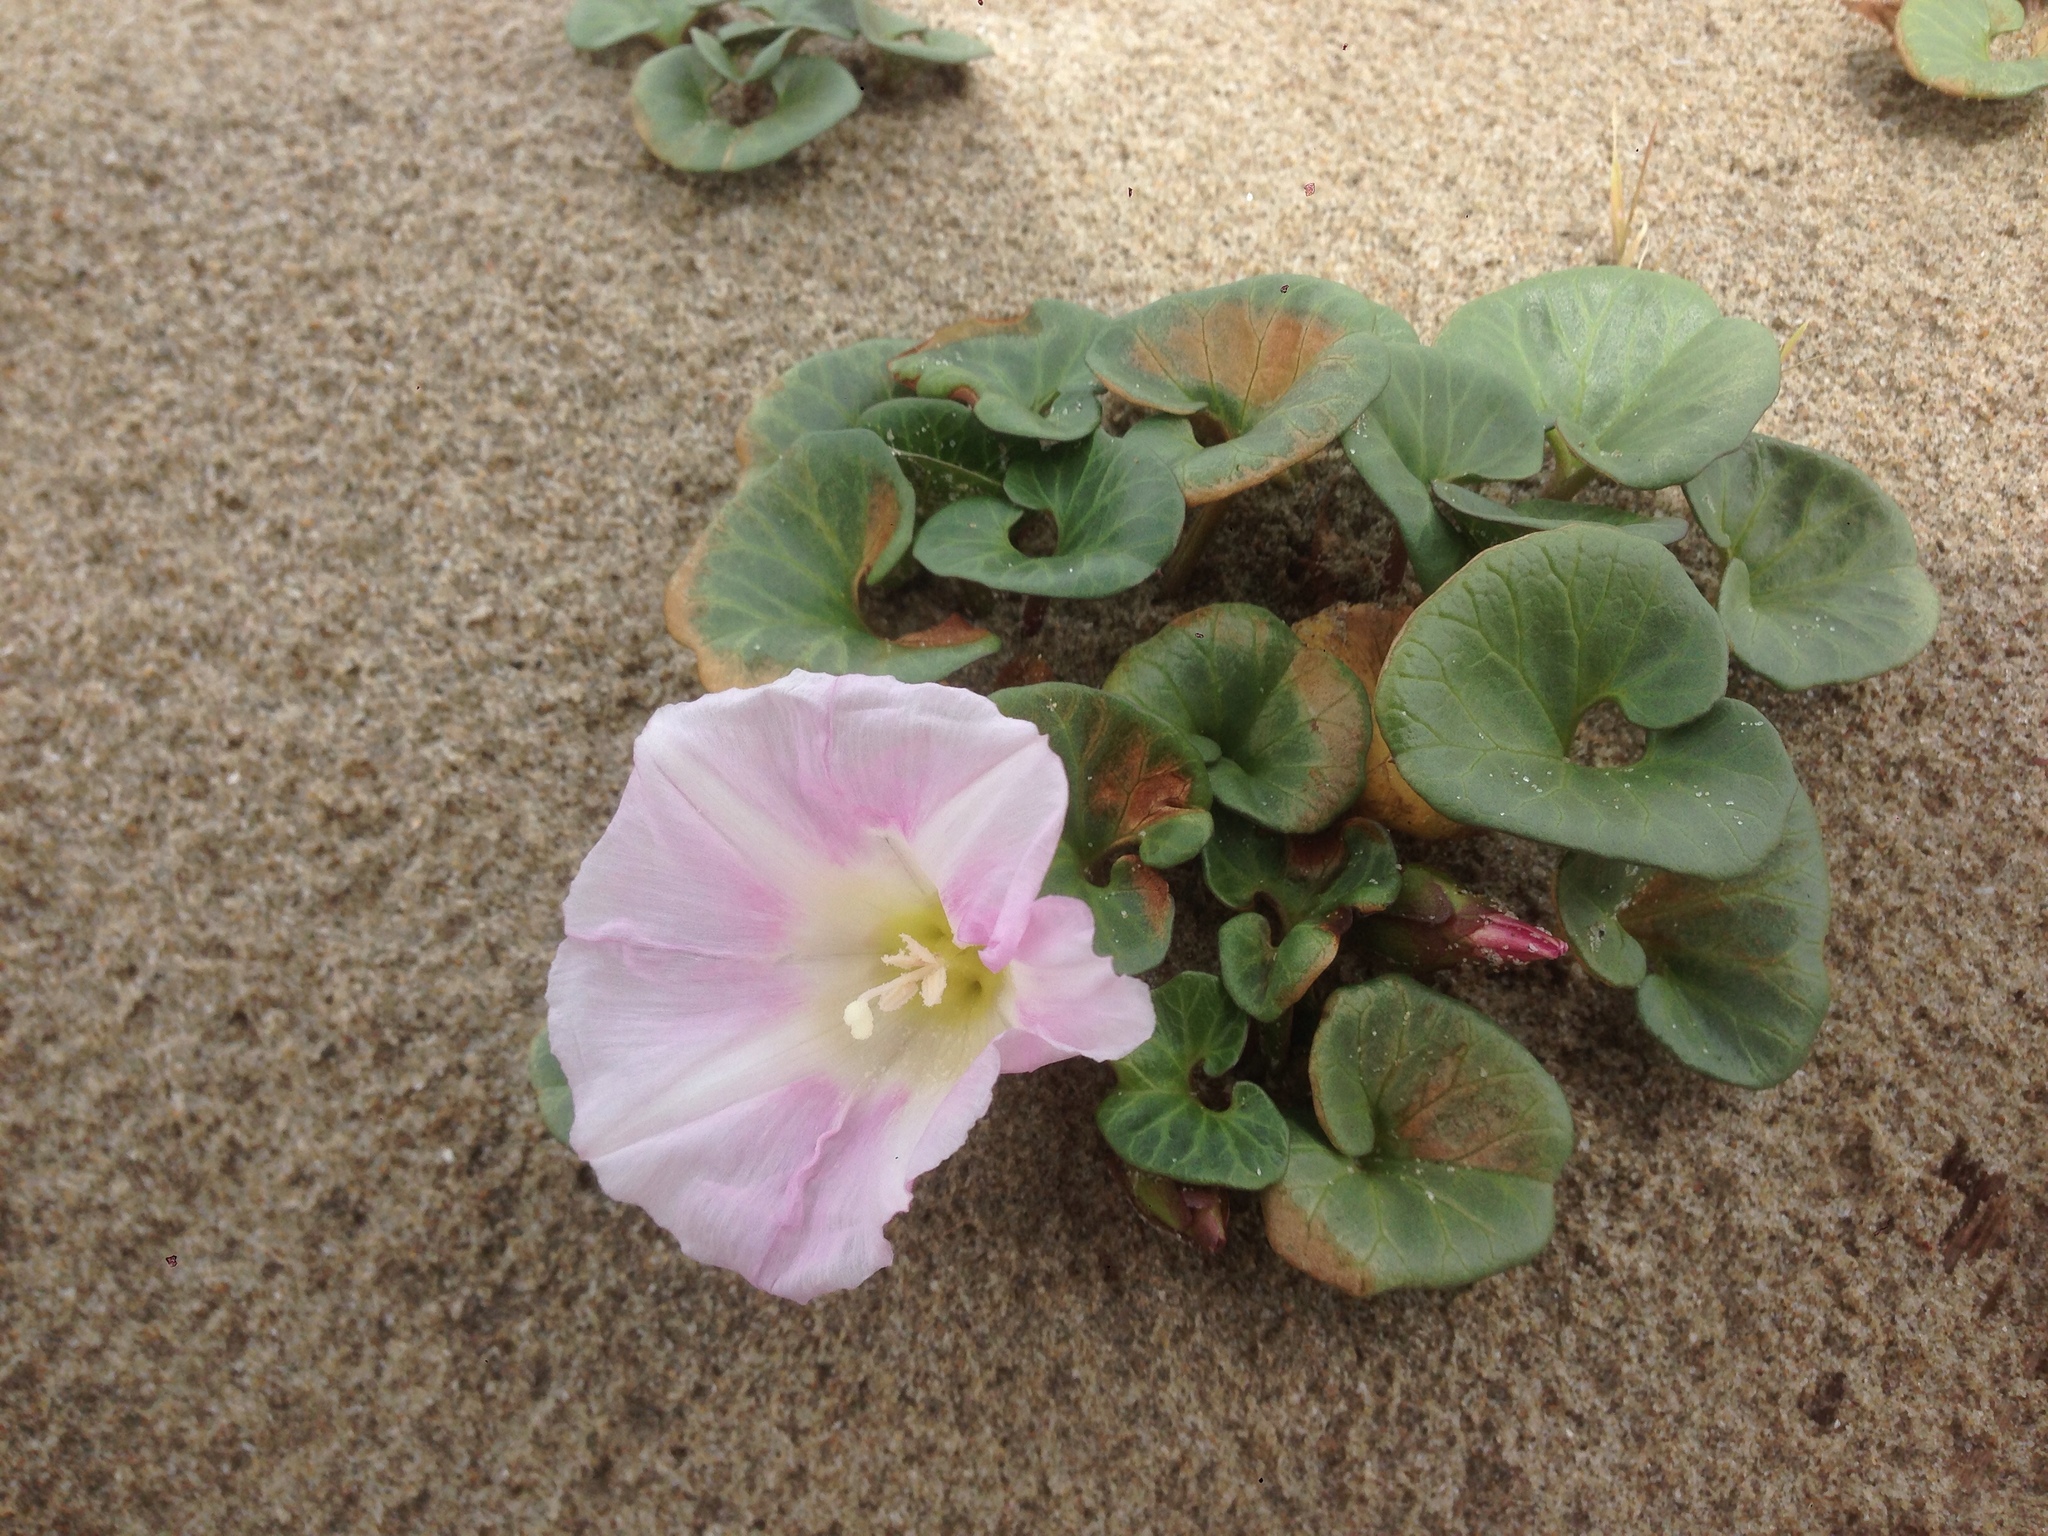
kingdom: Plantae
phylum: Tracheophyta
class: Magnoliopsida
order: Solanales
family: Convolvulaceae
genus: Calystegia
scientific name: Calystegia soldanella
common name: Sea bindweed
